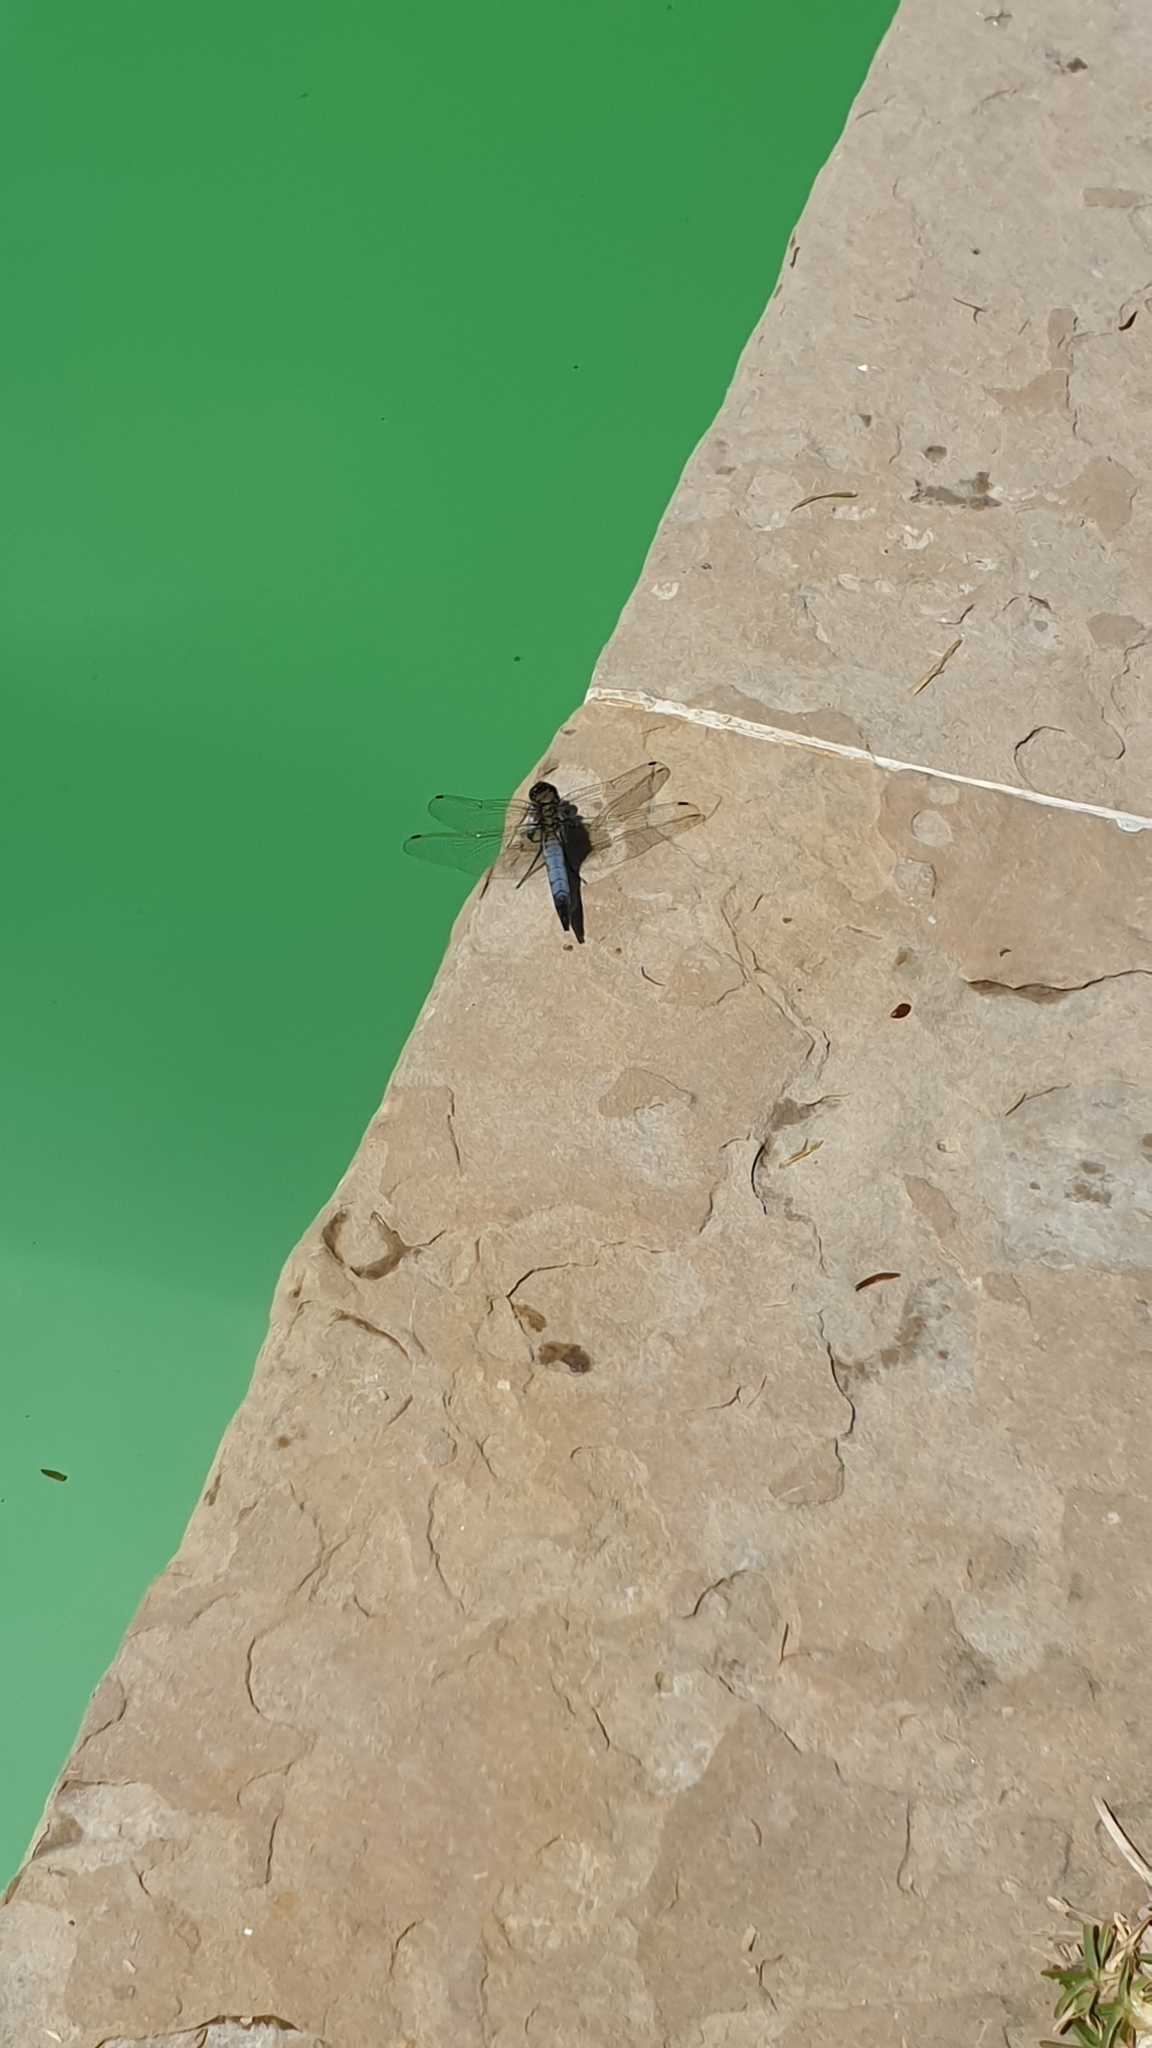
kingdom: Animalia
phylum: Arthropoda
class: Insecta
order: Odonata
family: Libellulidae
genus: Orthetrum
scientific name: Orthetrum cancellatum
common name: Black-tailed skimmer
